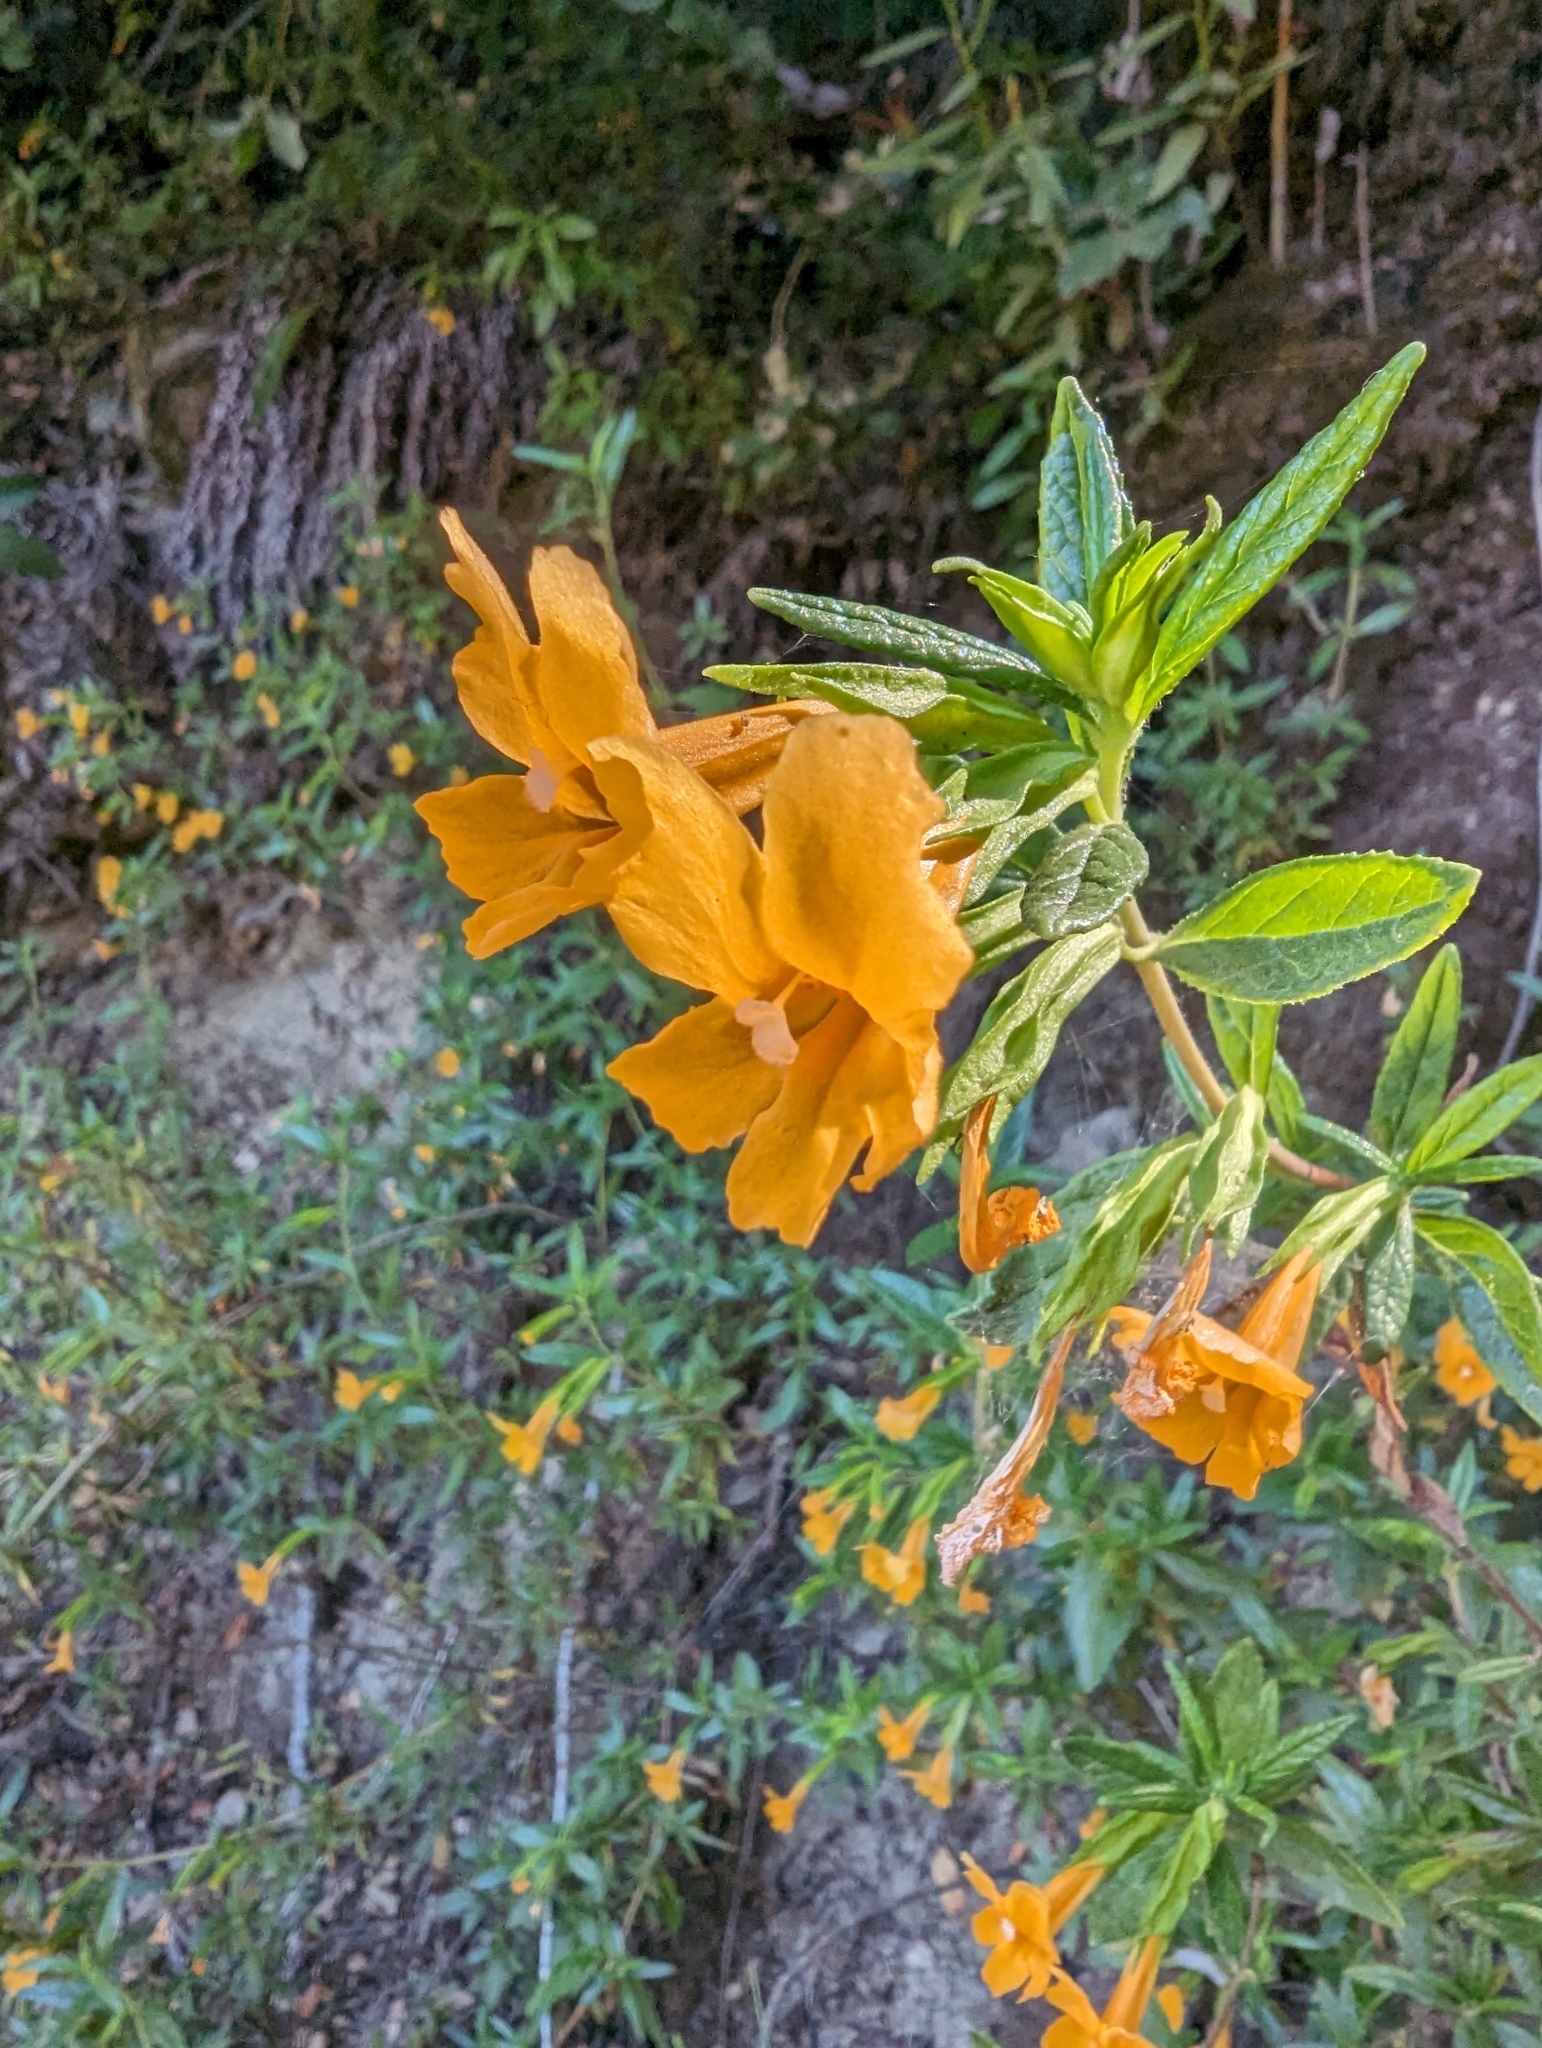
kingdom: Plantae
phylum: Tracheophyta
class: Magnoliopsida
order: Lamiales
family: Phrymaceae
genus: Diplacus
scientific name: Diplacus aurantiacus
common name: Bush monkey-flower
